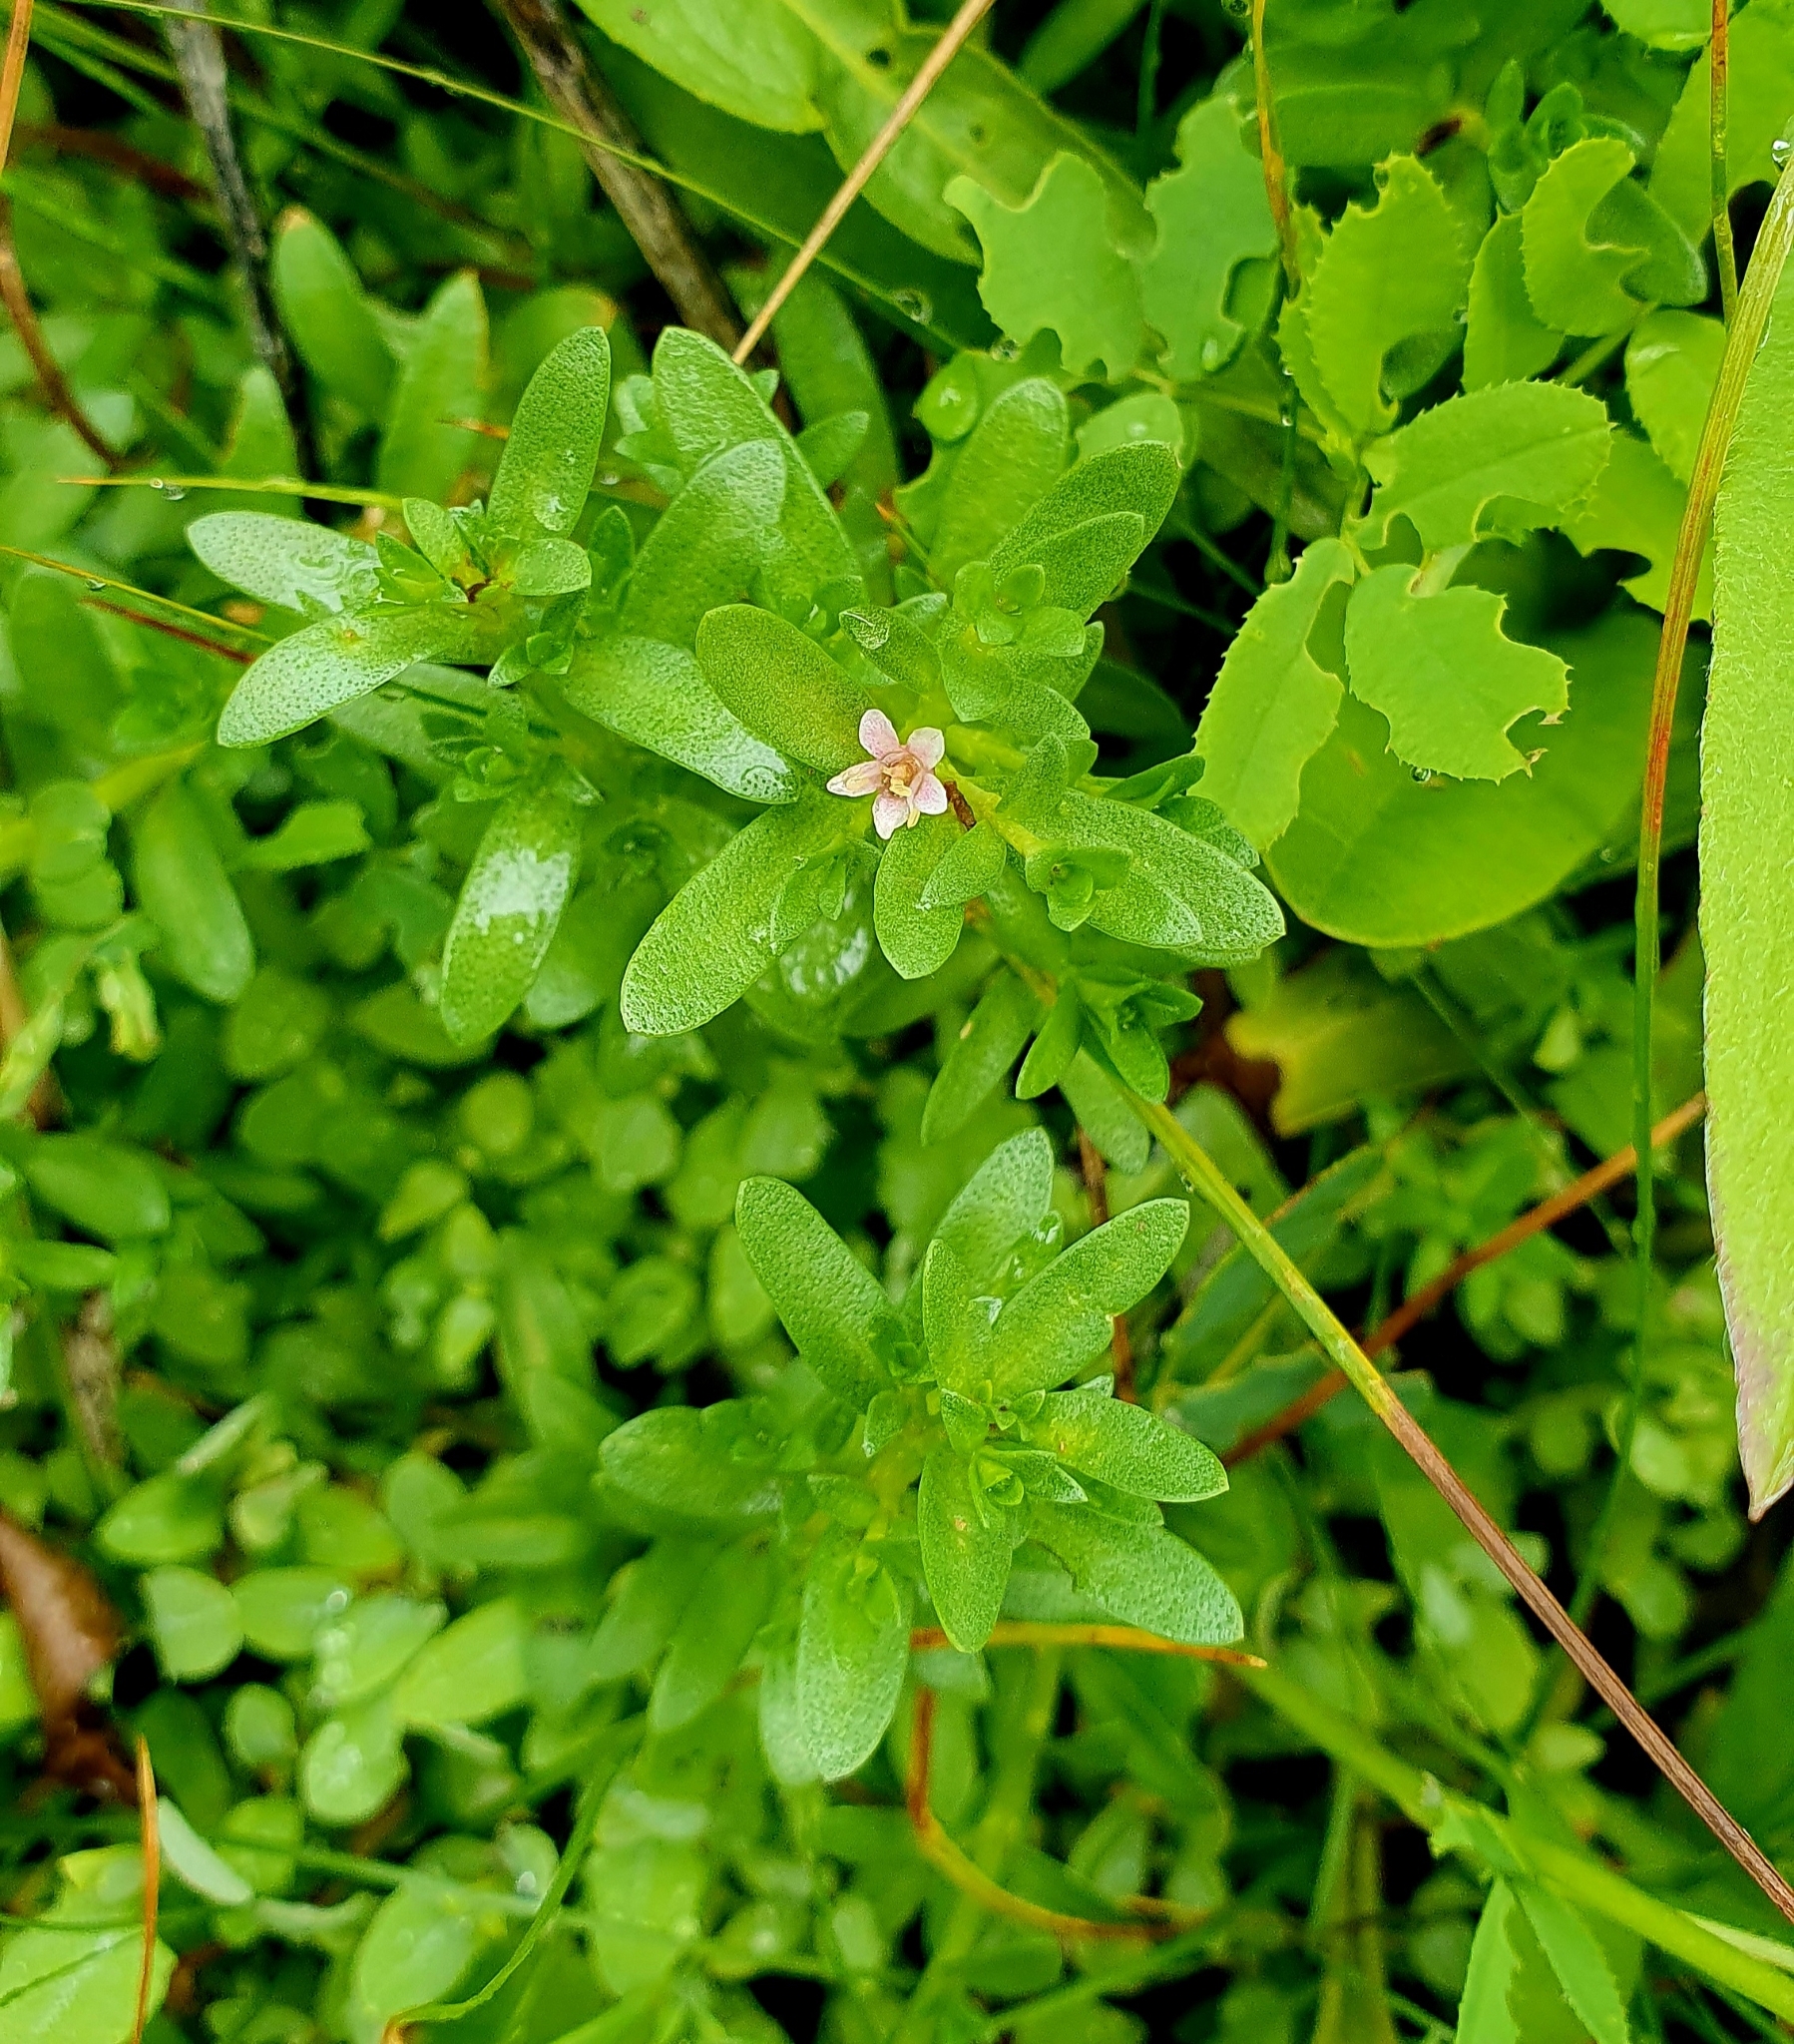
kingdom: Plantae
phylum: Tracheophyta
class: Magnoliopsida
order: Ericales
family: Primulaceae
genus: Lysimachia
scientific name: Lysimachia maritima
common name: Sea milkwort
